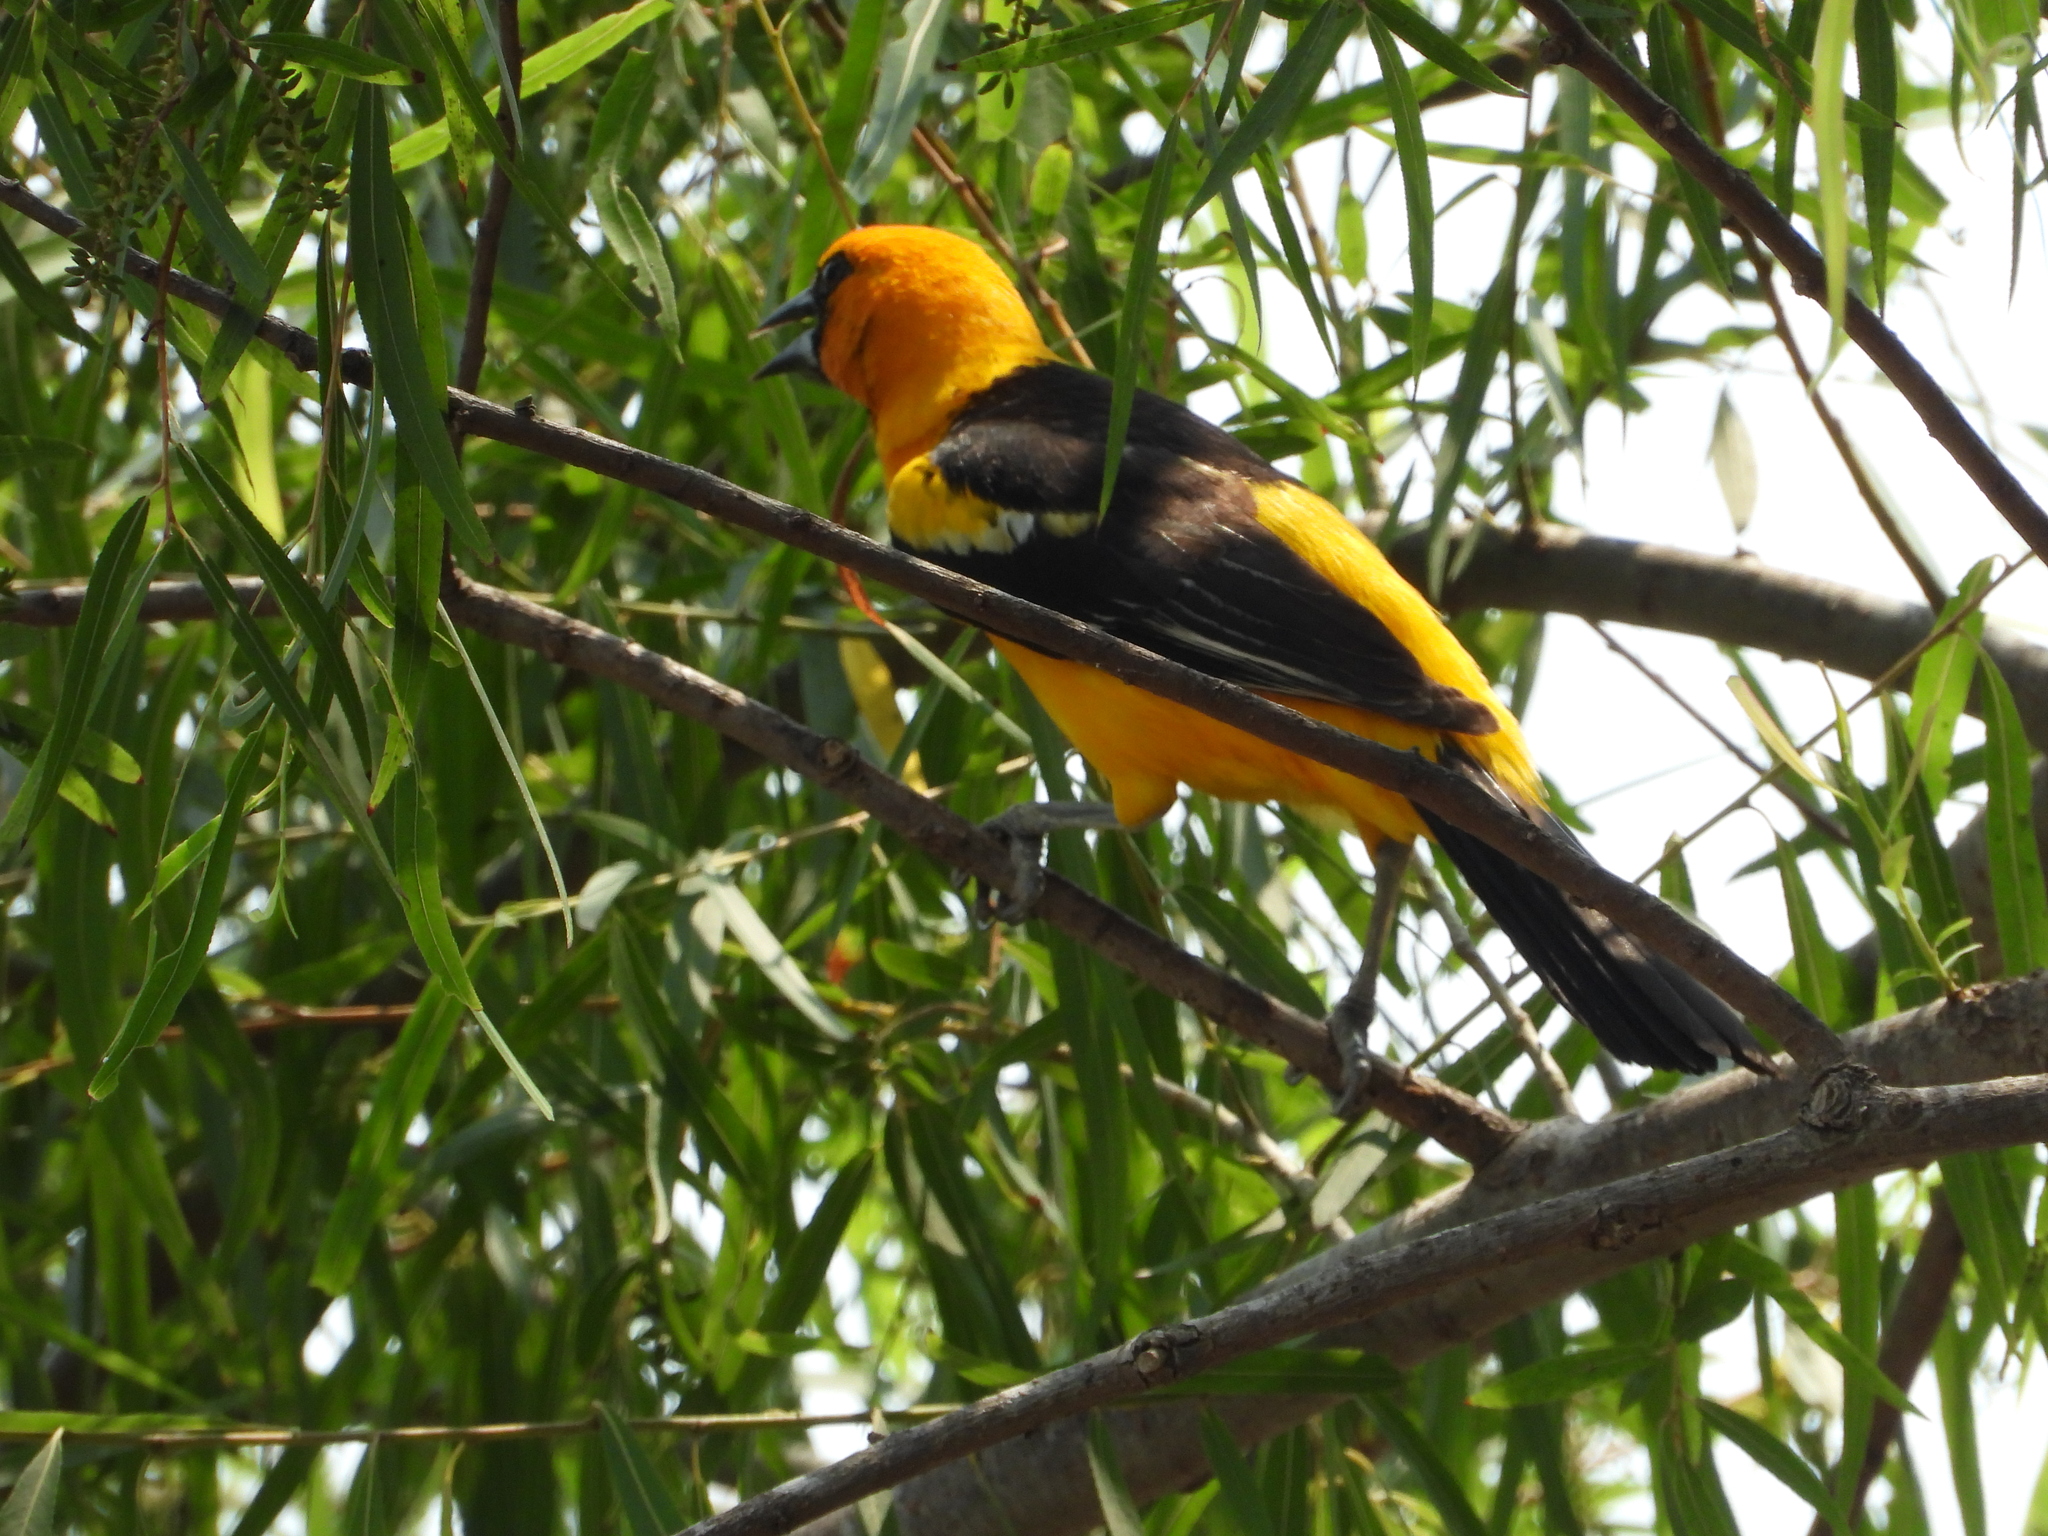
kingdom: Animalia
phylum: Chordata
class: Aves
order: Passeriformes
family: Icteridae
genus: Icterus
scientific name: Icterus gularis
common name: Altamira oriole
